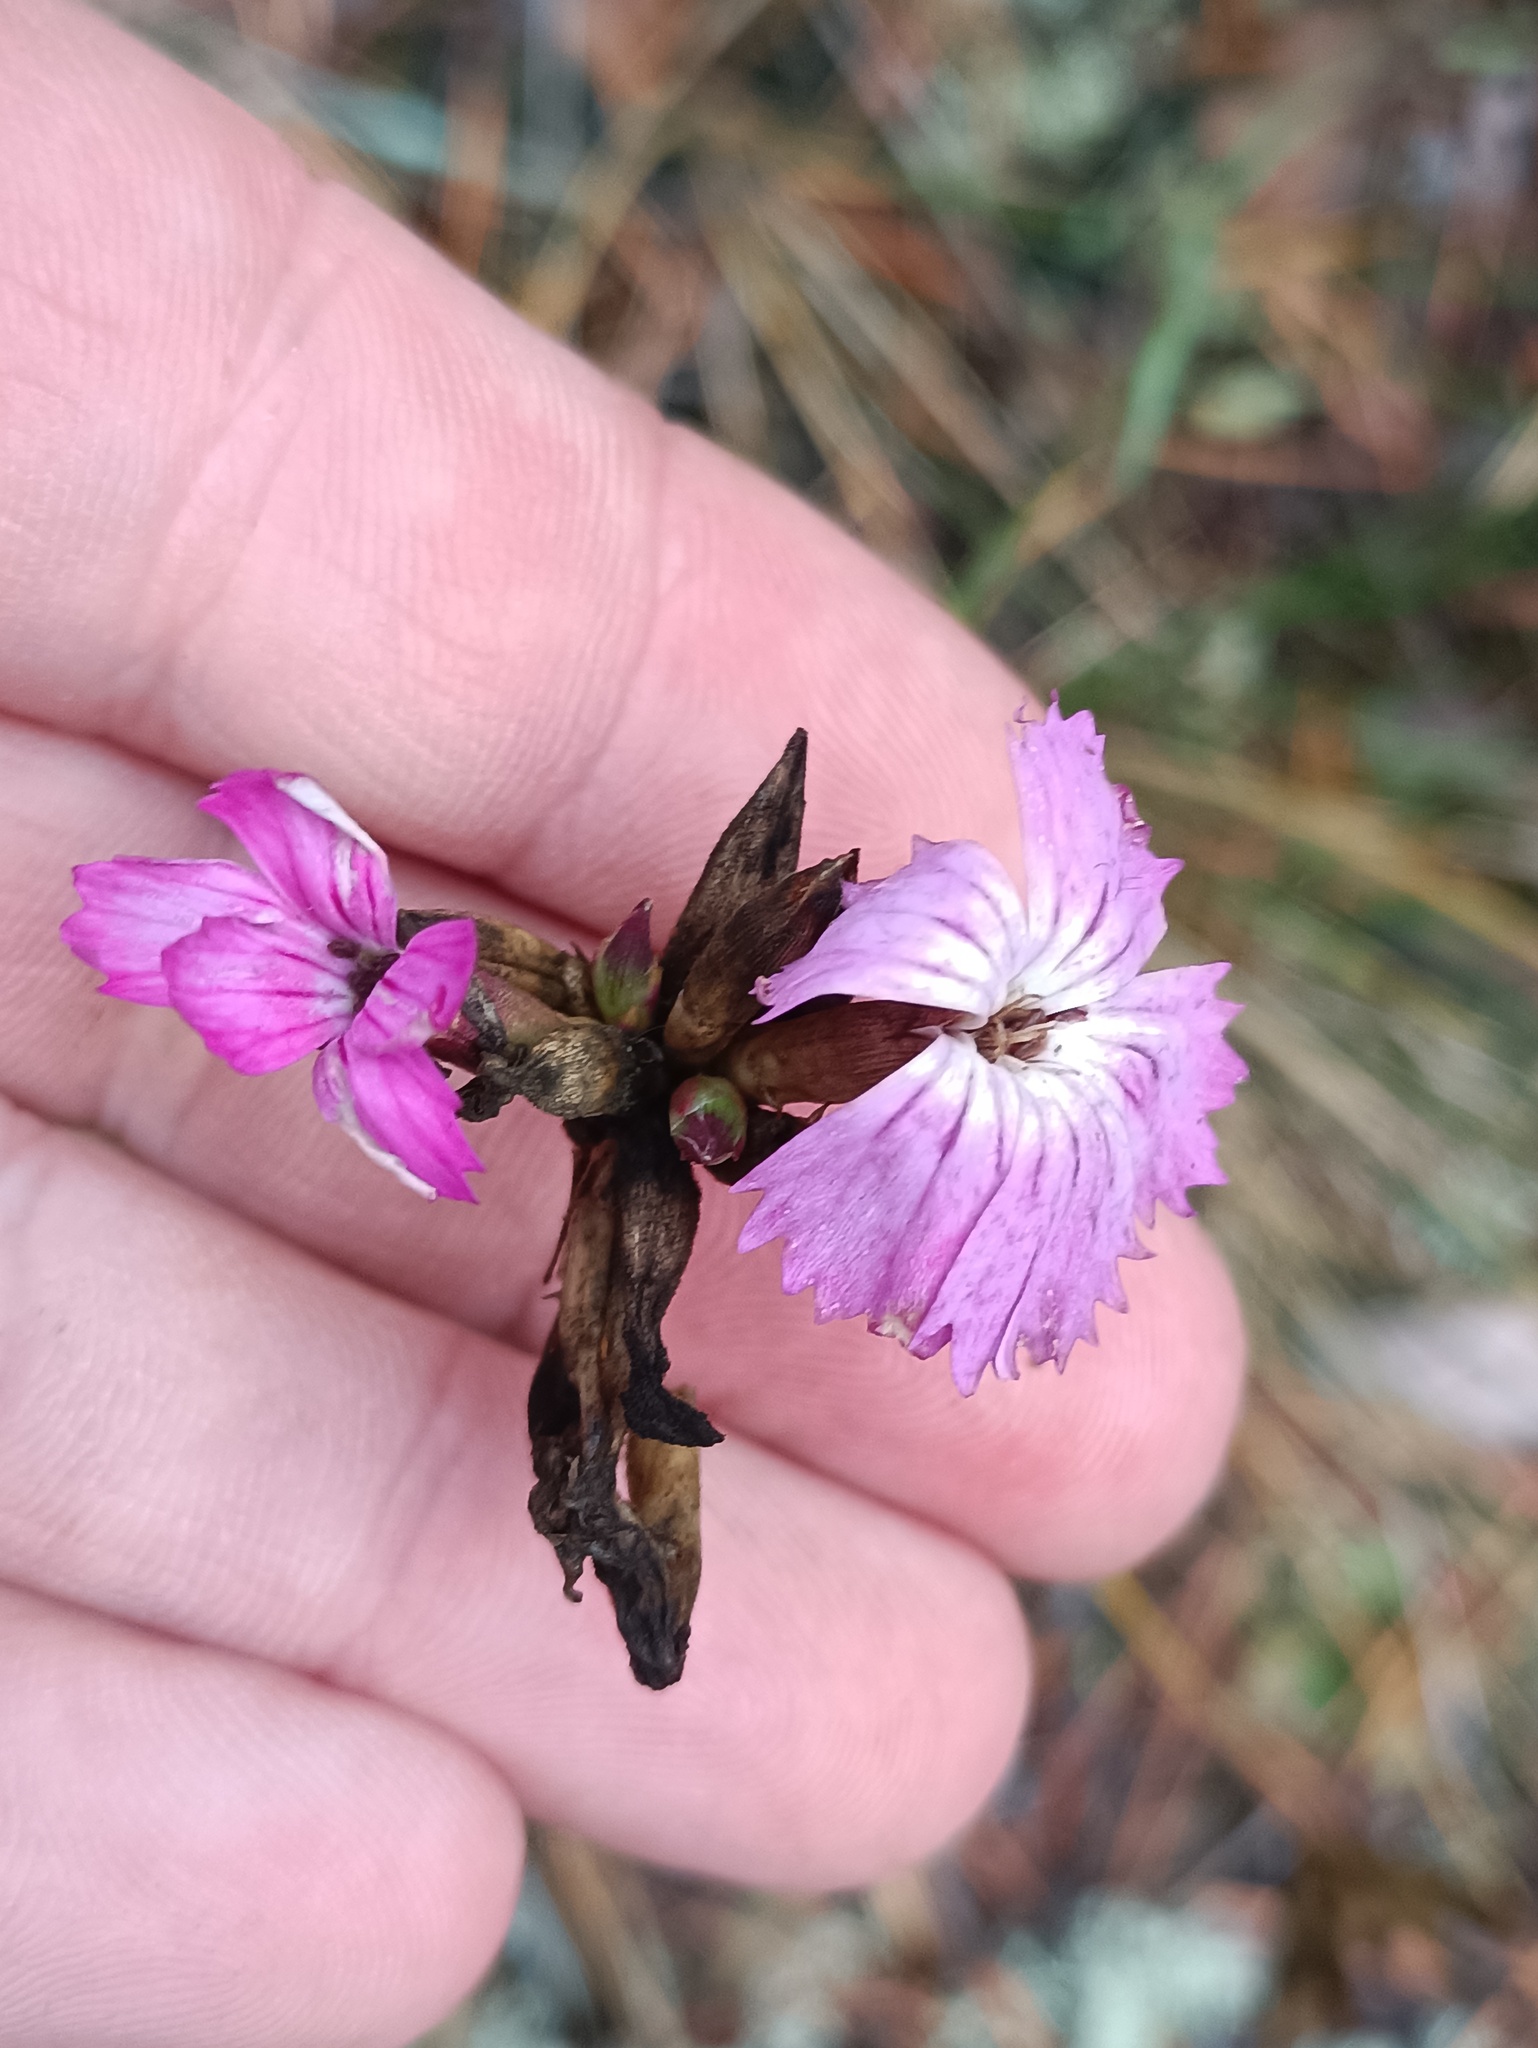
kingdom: Plantae
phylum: Tracheophyta
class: Magnoliopsida
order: Caryophyllales
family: Caryophyllaceae
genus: Dianthus
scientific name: Dianthus borbasii
